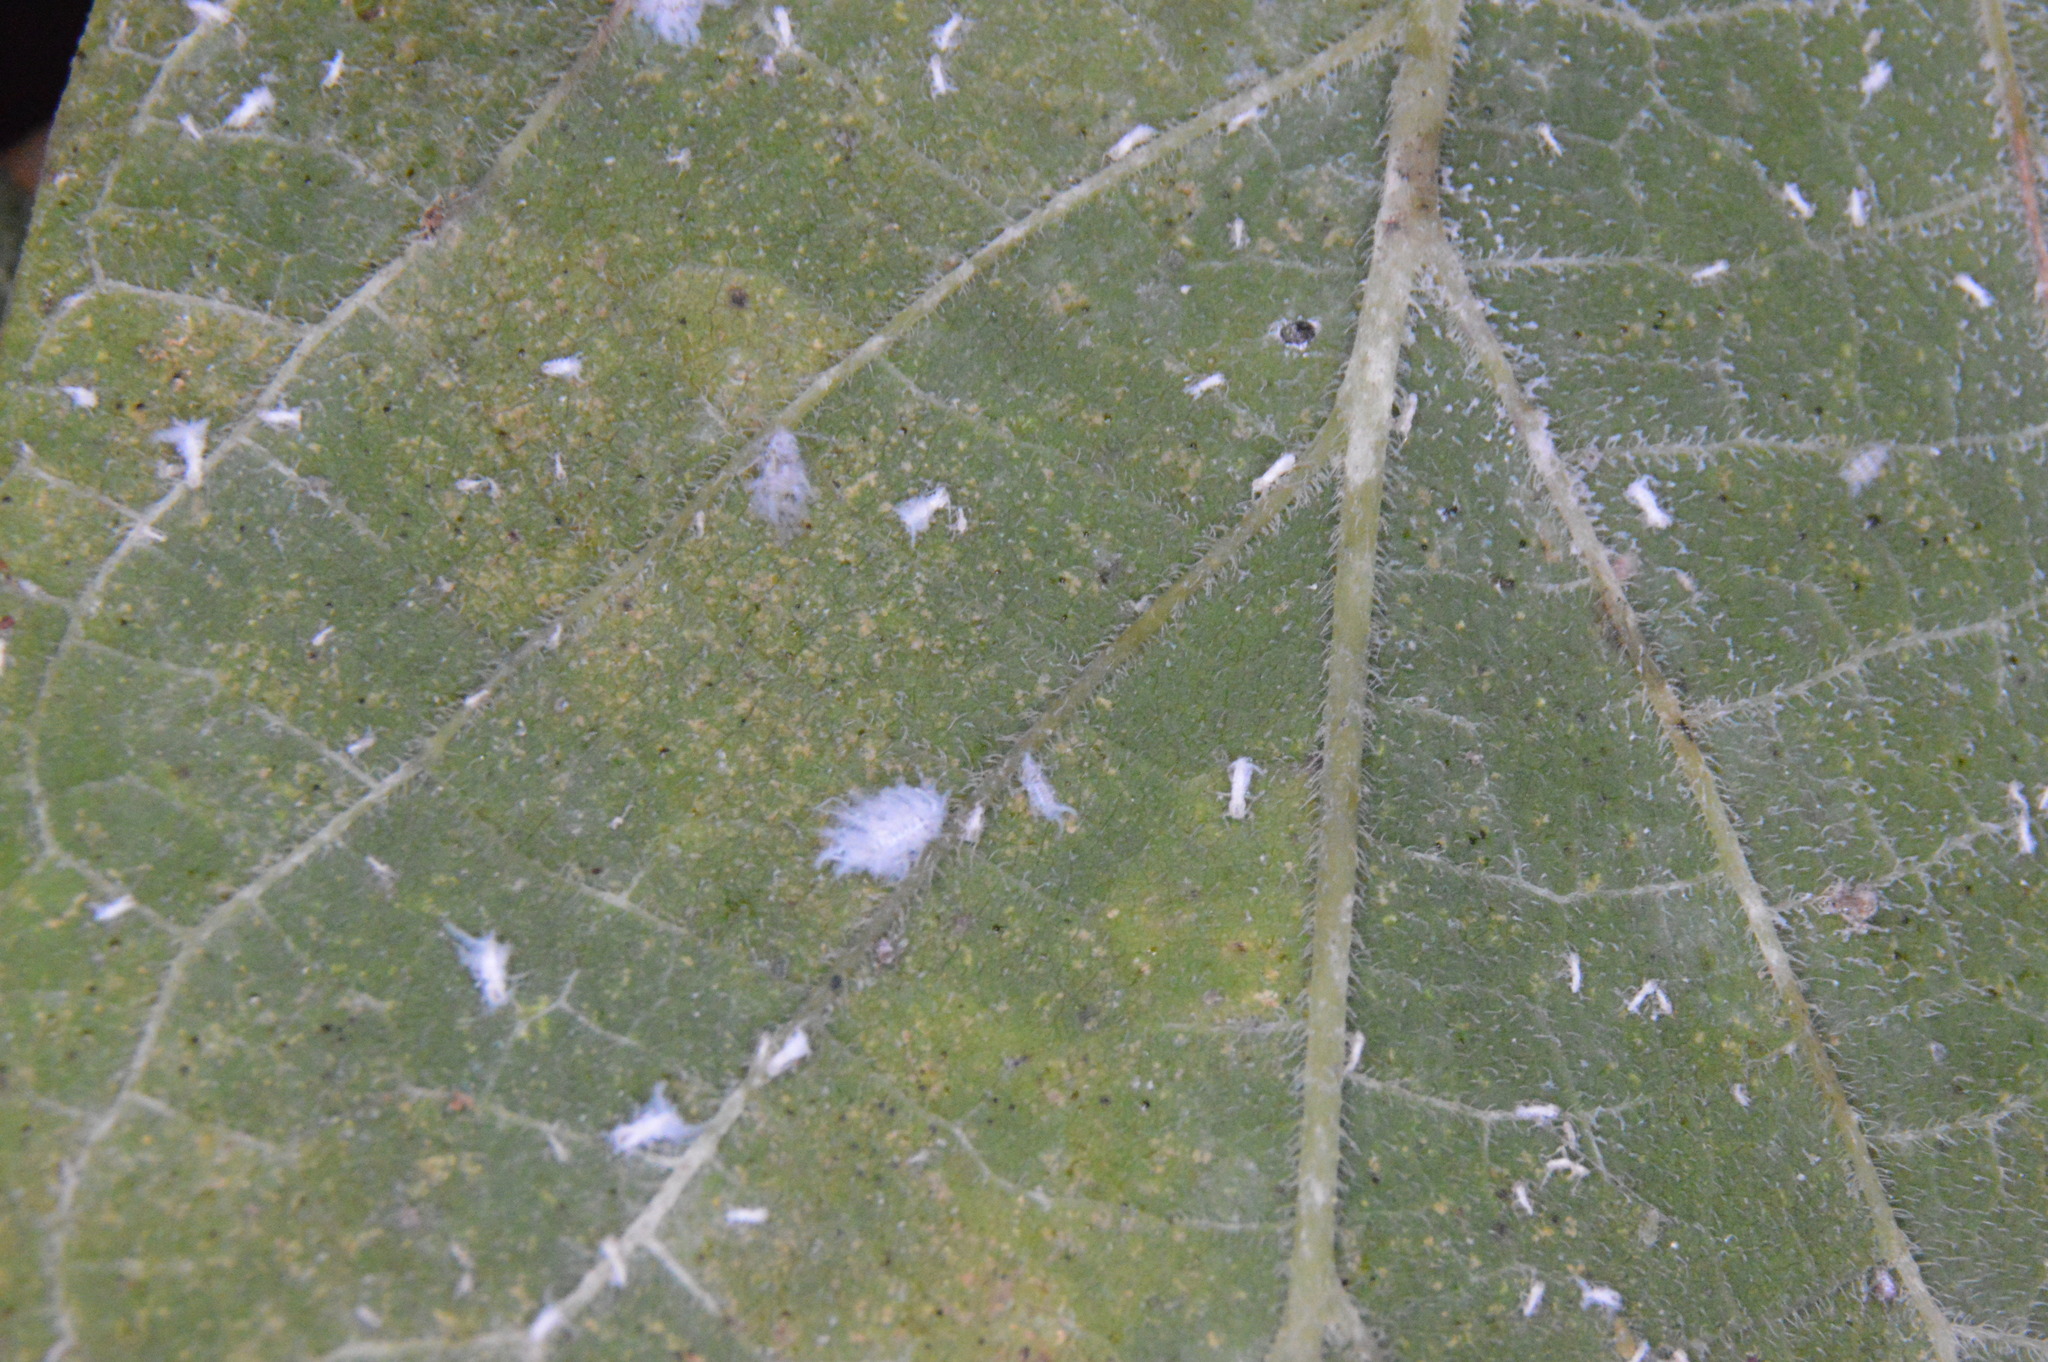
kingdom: Animalia
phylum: Arthropoda
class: Insecta
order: Hemiptera
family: Aphididae
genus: Shivaphis
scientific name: Shivaphis celti
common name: Asian wooly hackberry aphid
